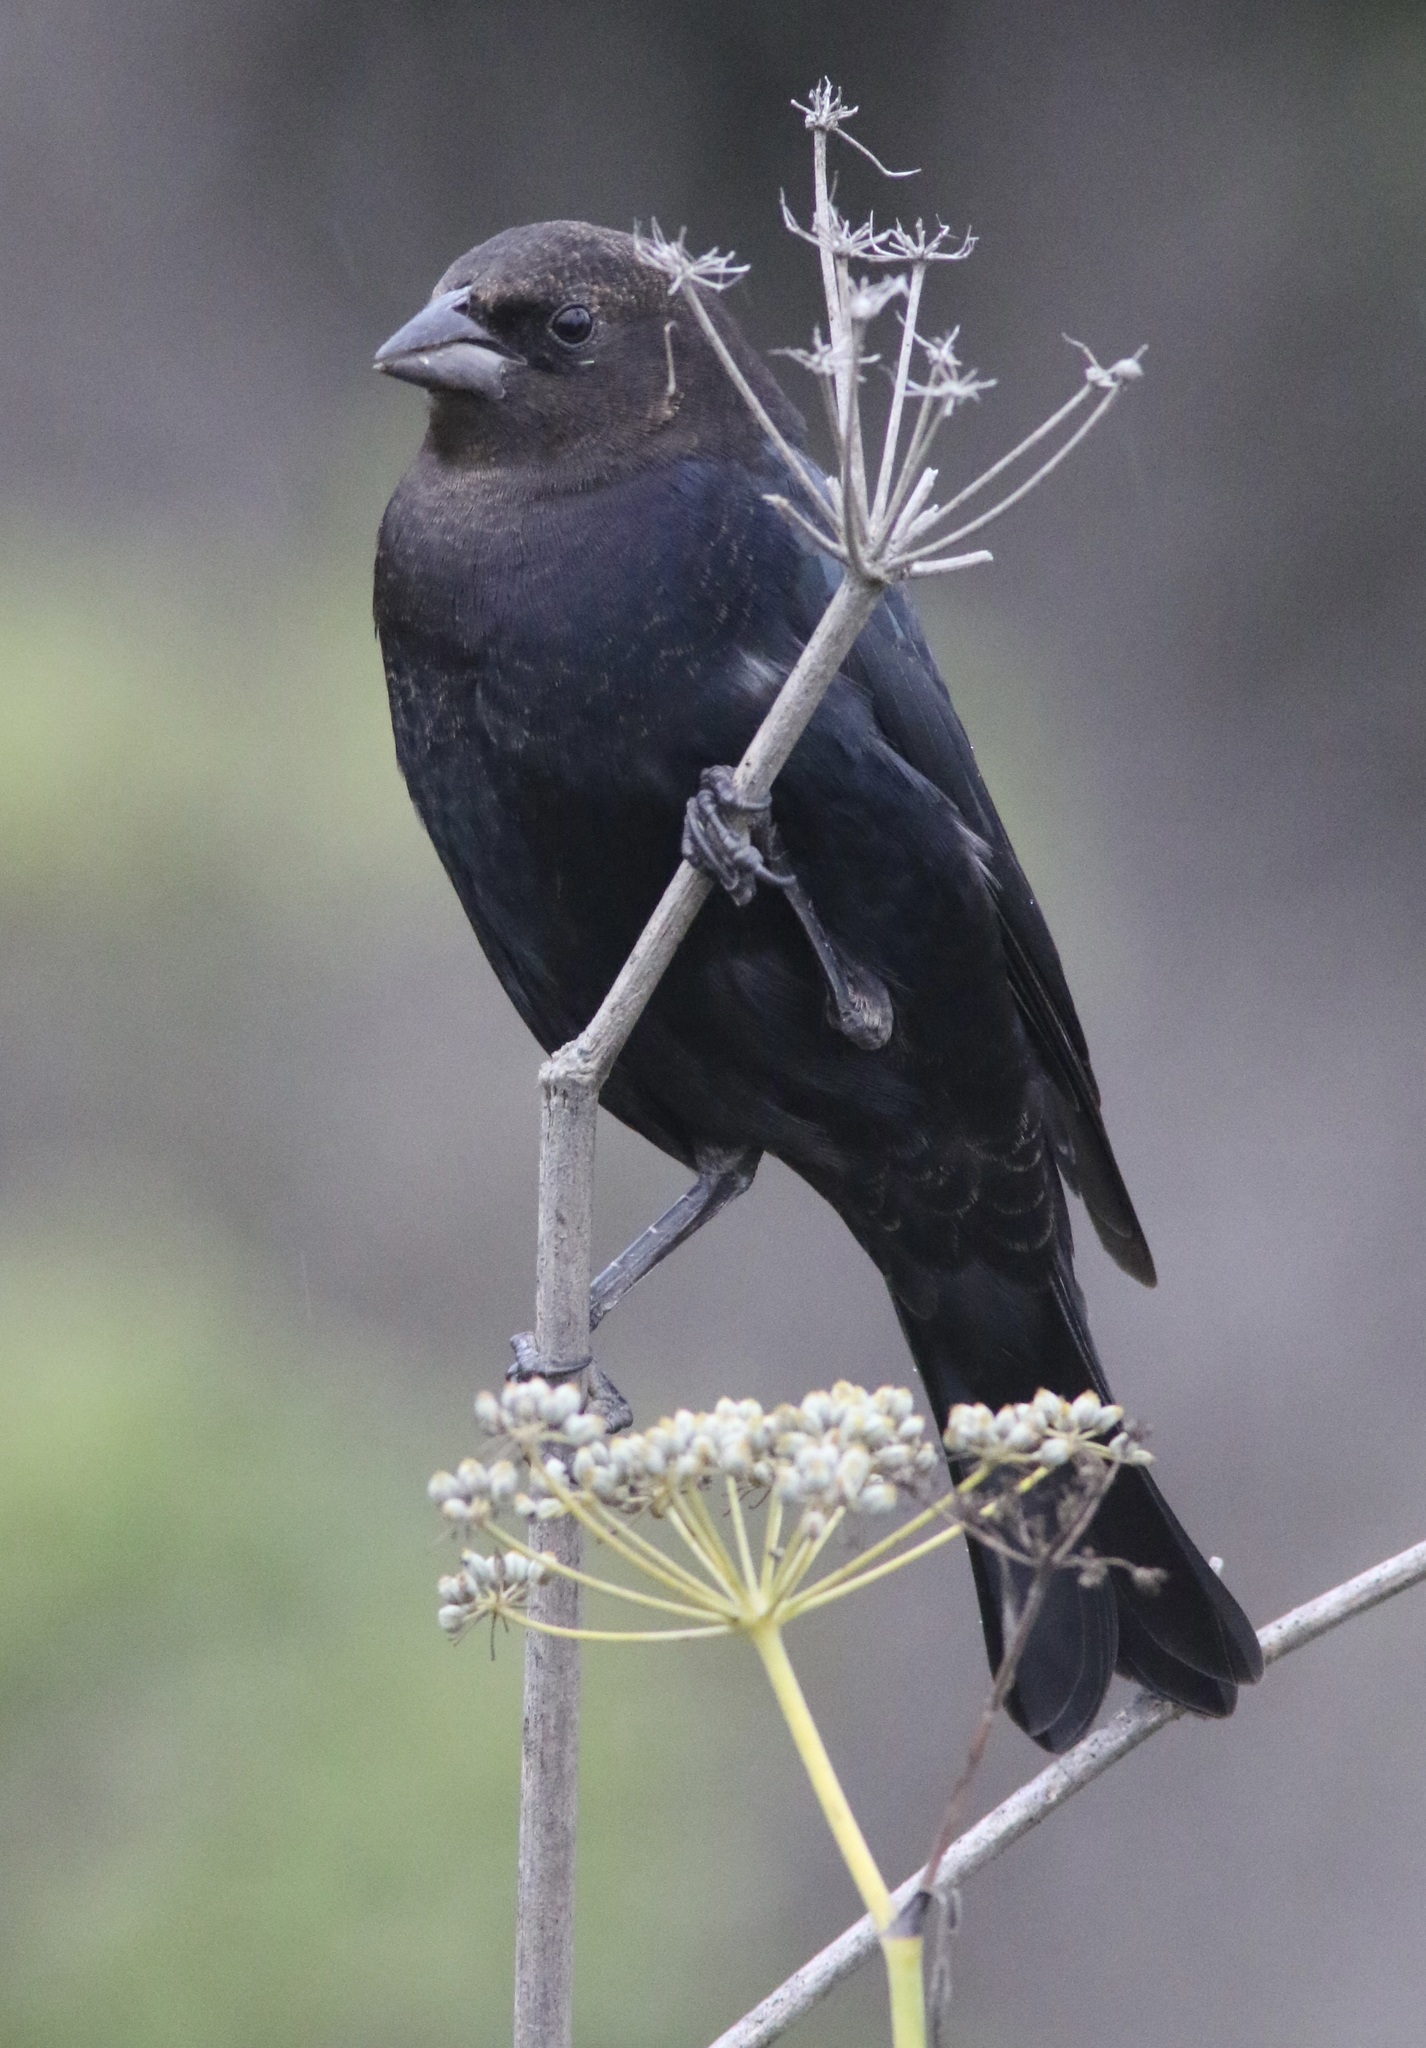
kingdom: Animalia
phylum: Chordata
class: Aves
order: Passeriformes
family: Icteridae
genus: Molothrus
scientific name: Molothrus ater
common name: Brown-headed cowbird
